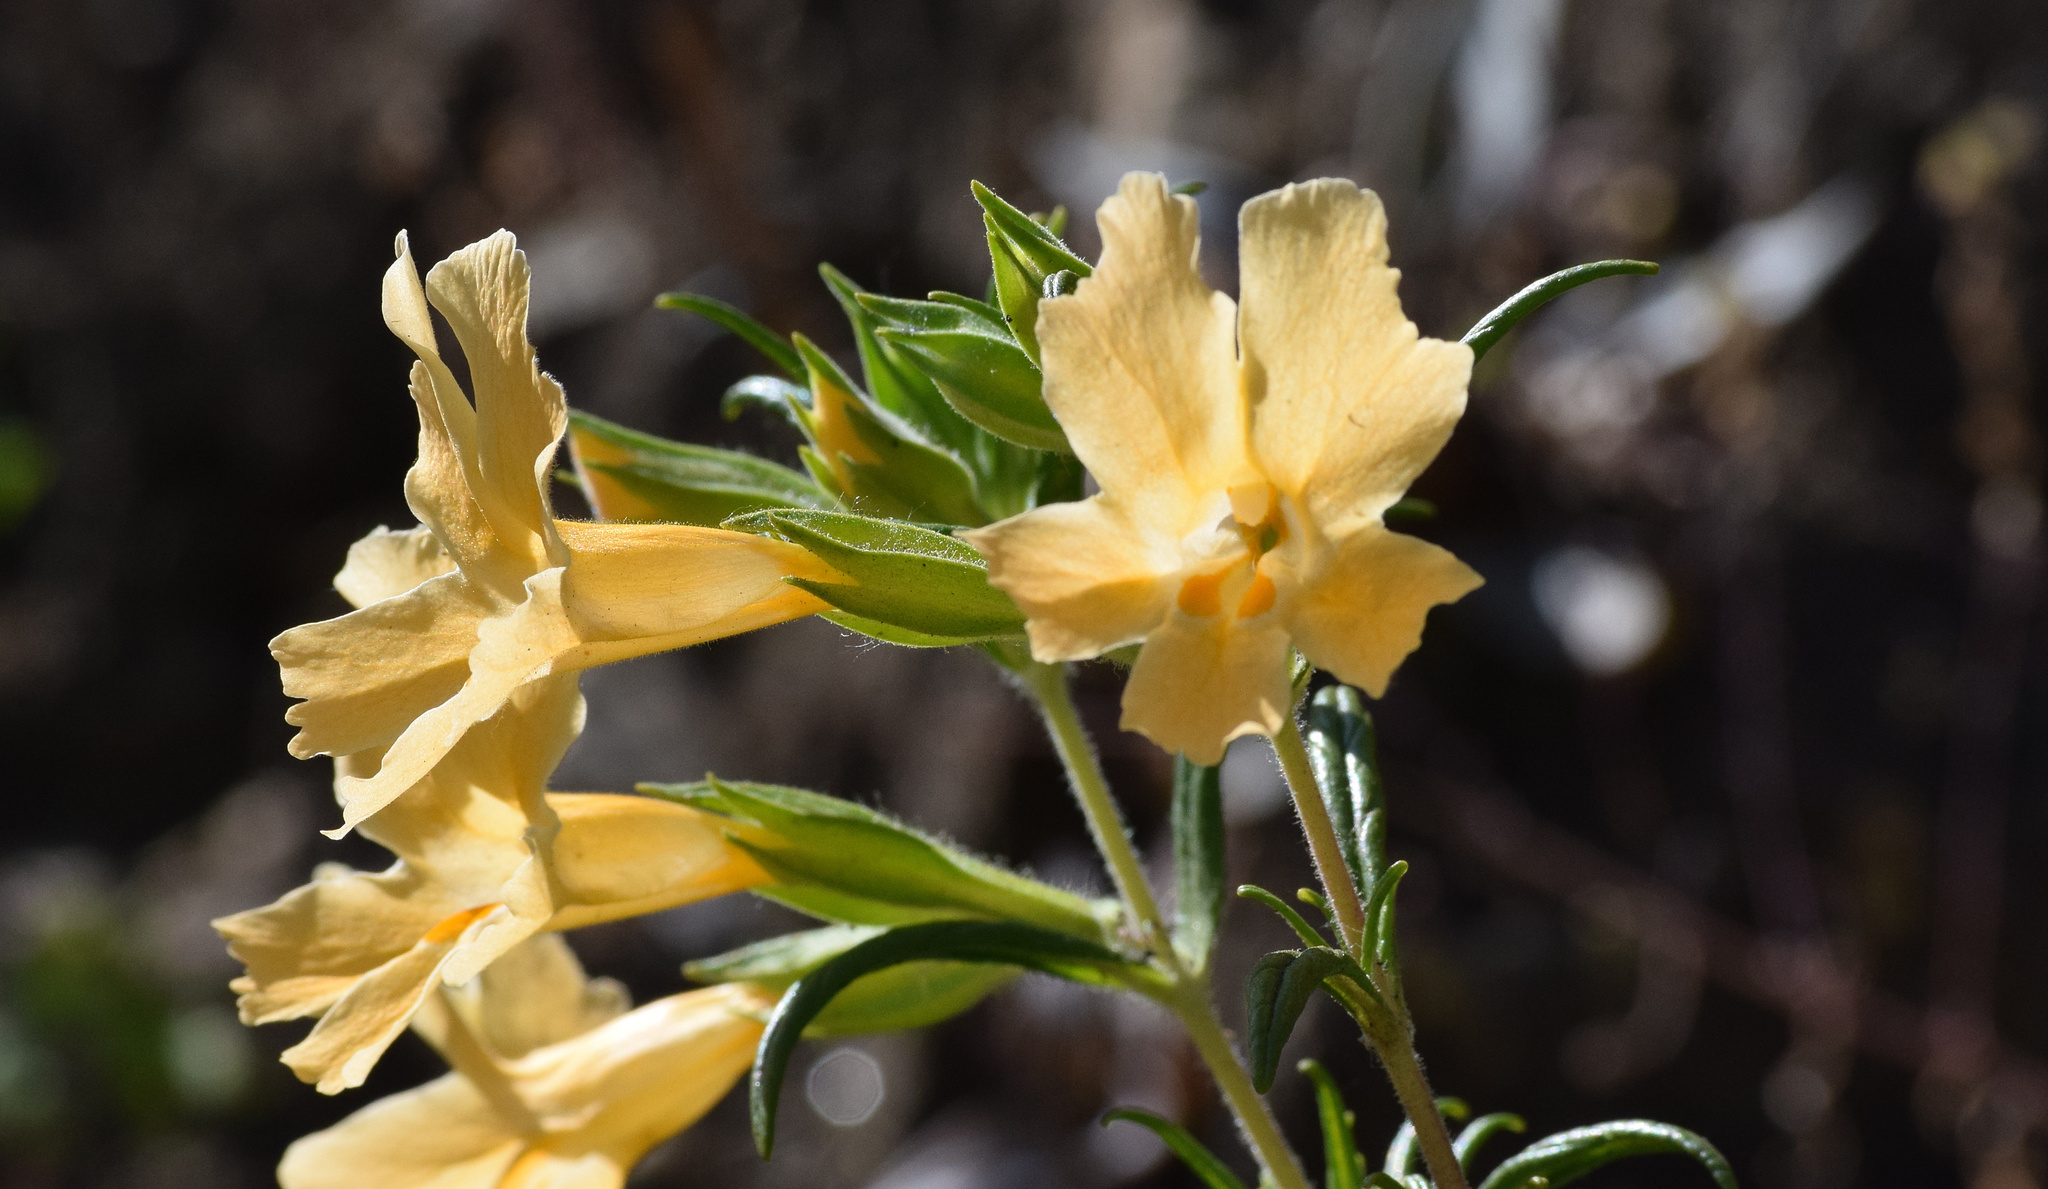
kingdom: Plantae
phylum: Tracheophyta
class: Magnoliopsida
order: Lamiales
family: Phrymaceae
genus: Diplacus
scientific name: Diplacus longiflorus
